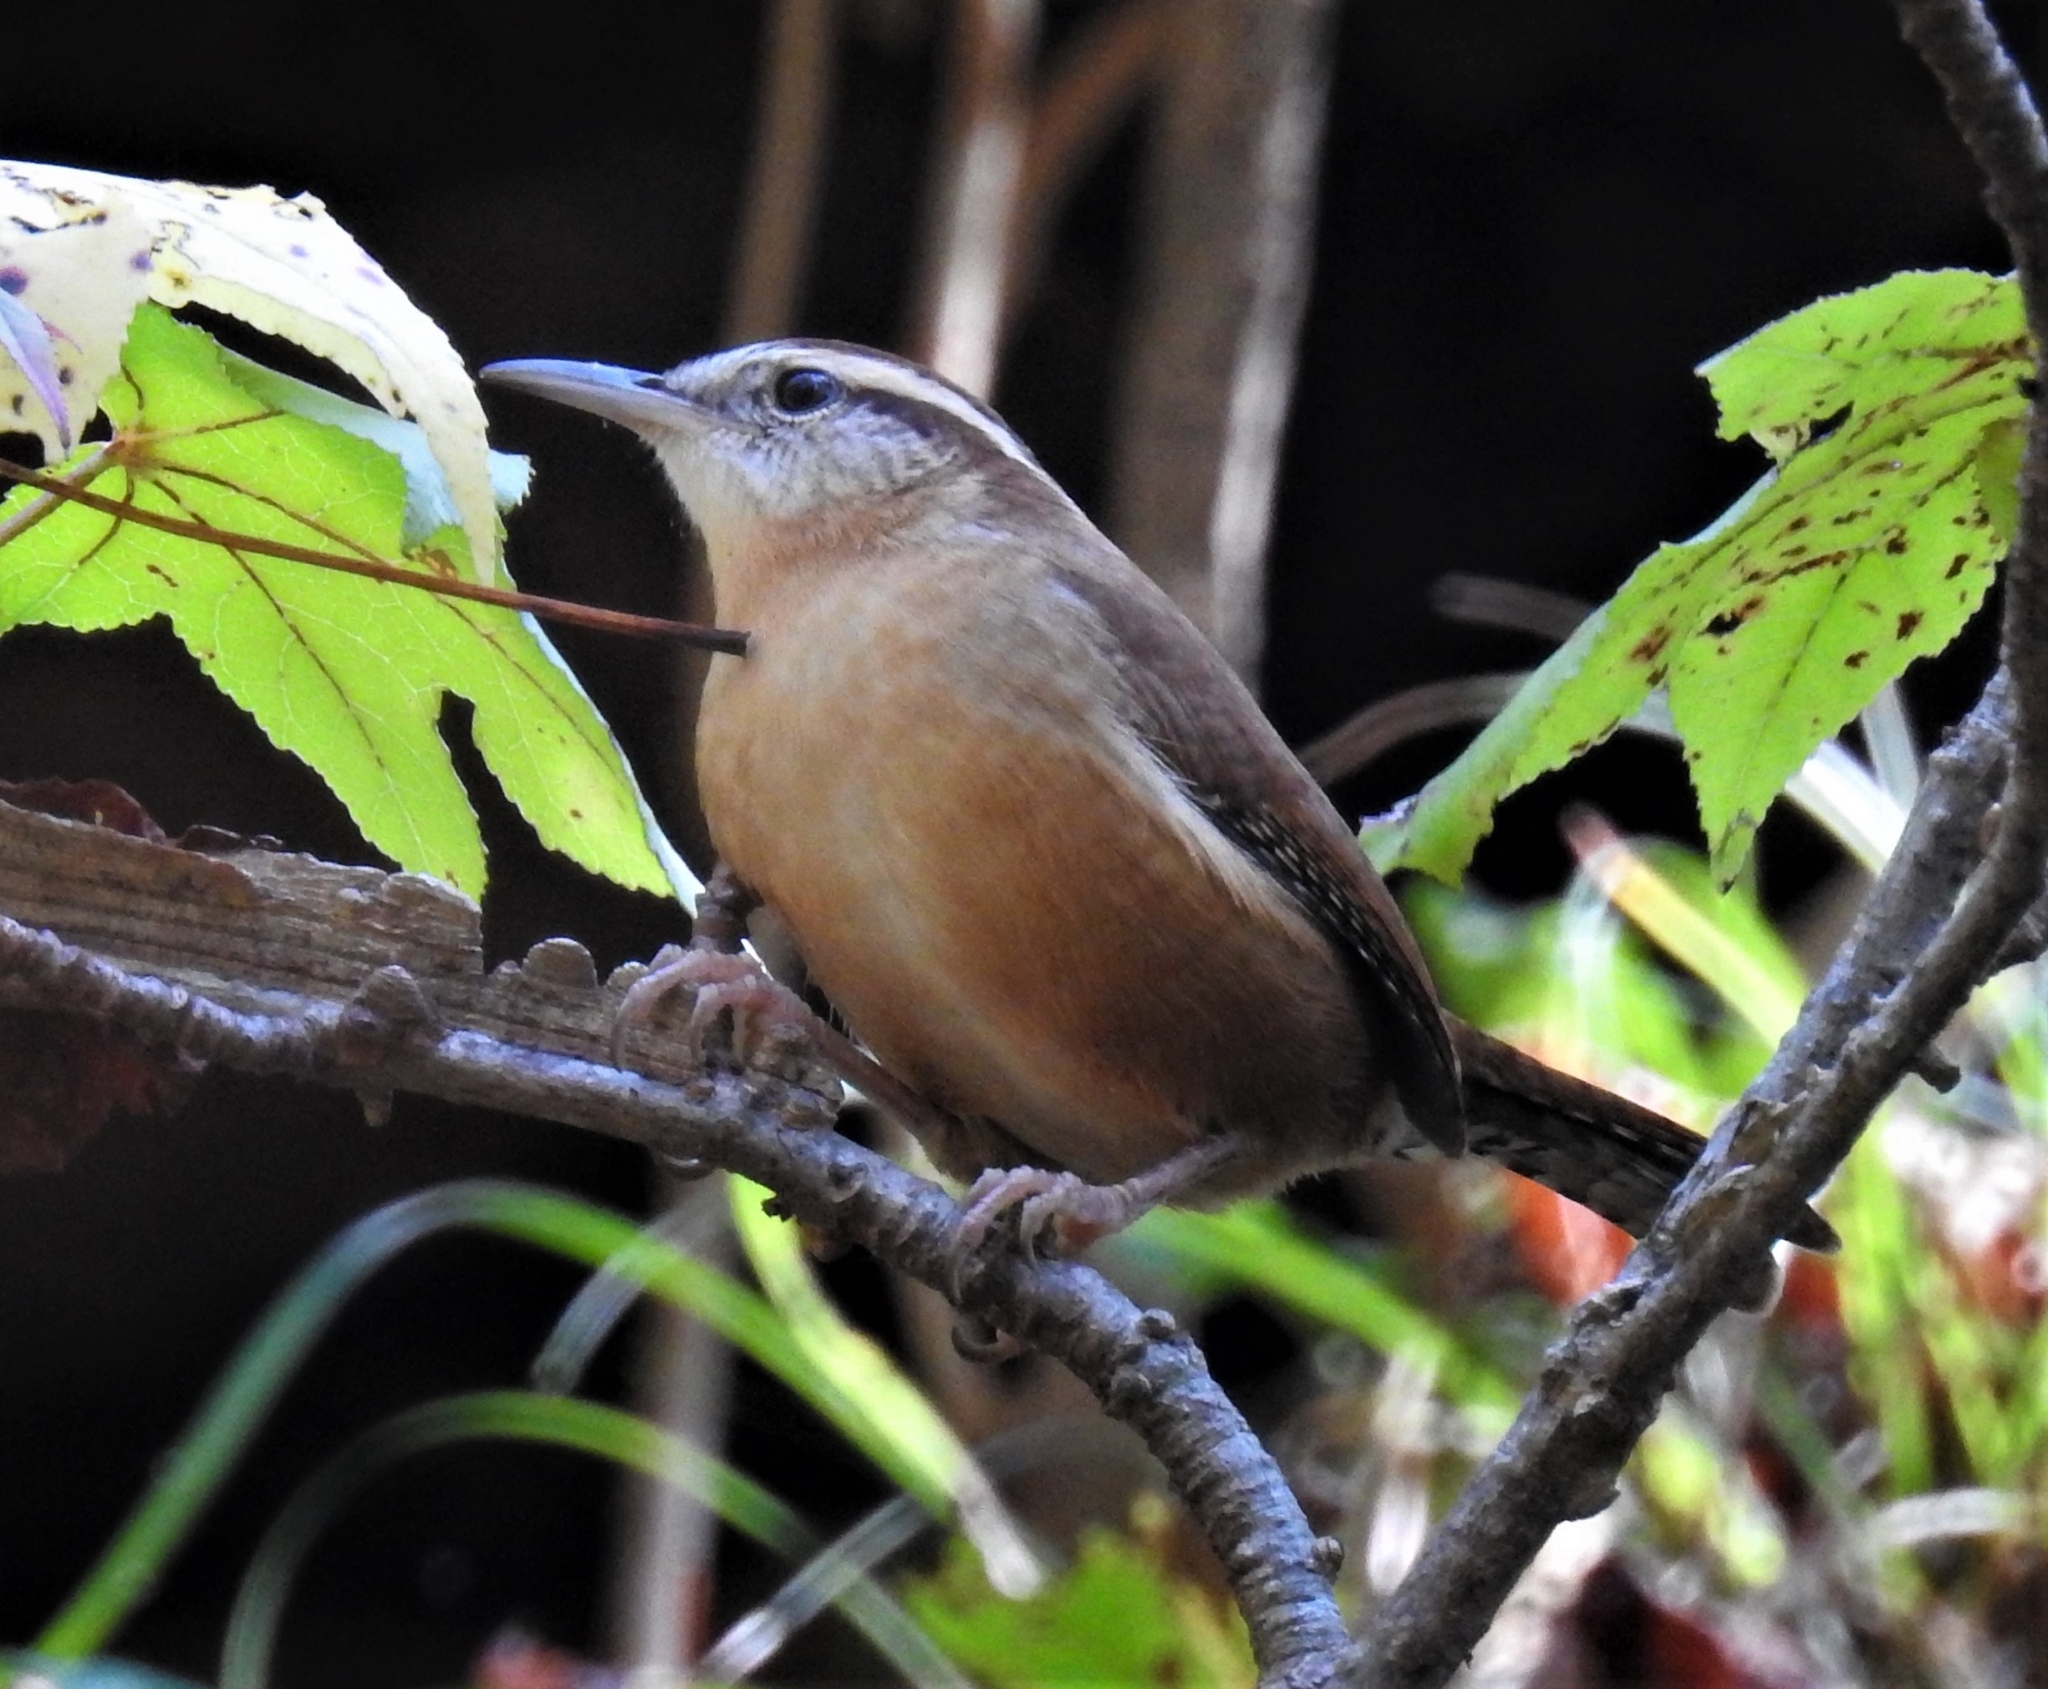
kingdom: Animalia
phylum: Chordata
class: Aves
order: Passeriformes
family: Troglodytidae
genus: Thryothorus
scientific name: Thryothorus ludovicianus
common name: Carolina wren
